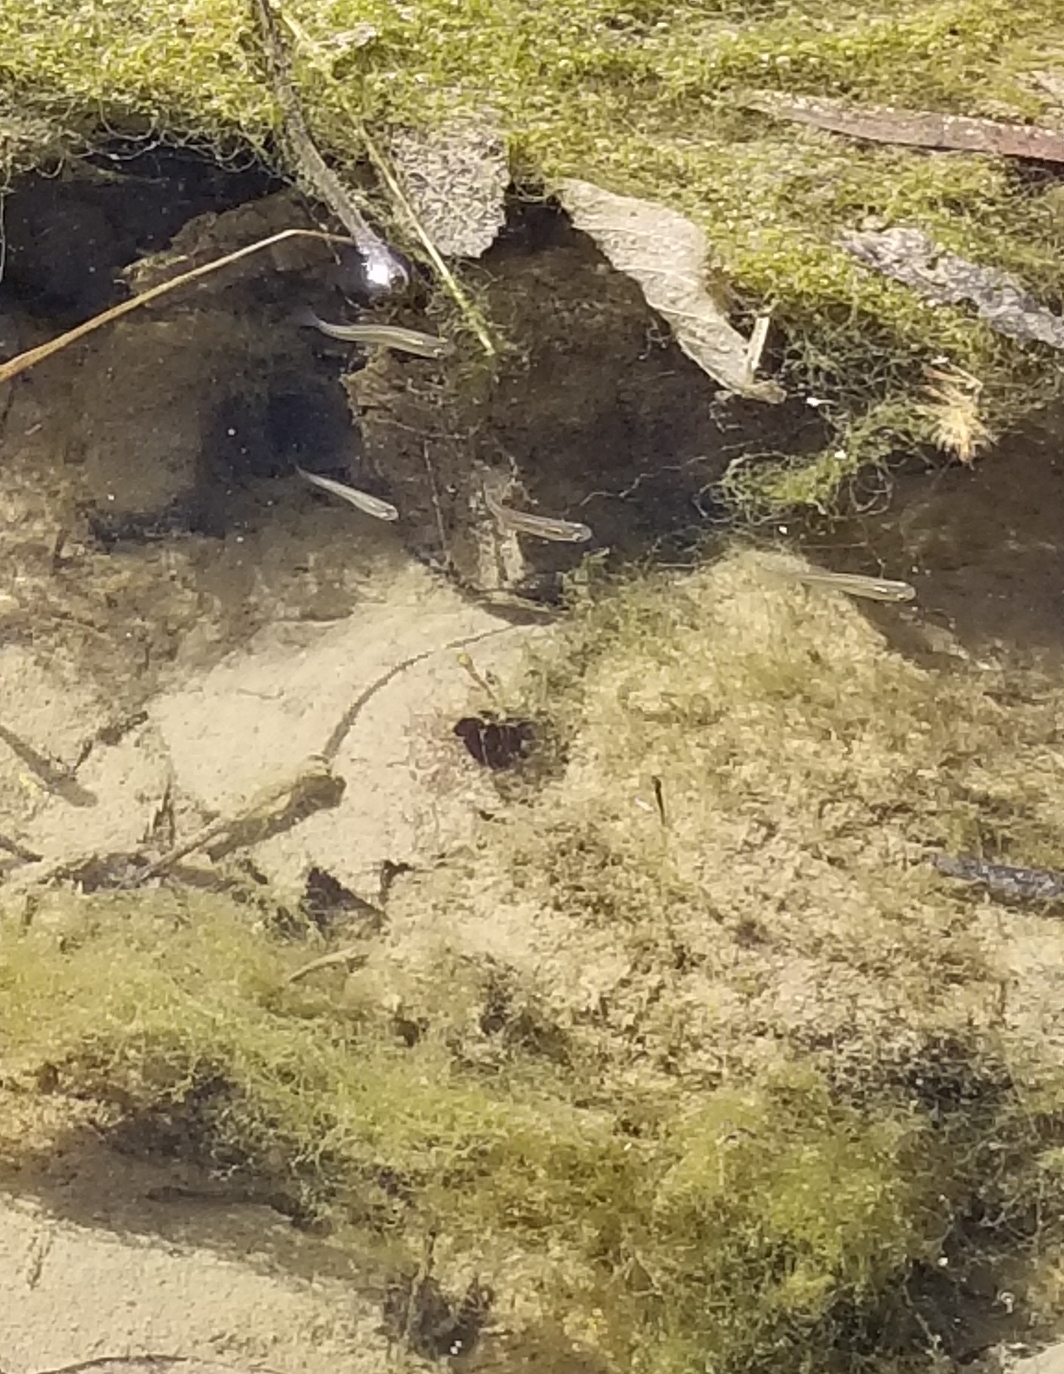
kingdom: Animalia
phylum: Chordata
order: Cyprinodontiformes
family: Poeciliidae
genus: Gambusia
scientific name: Gambusia affinis
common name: Mosquitofish
